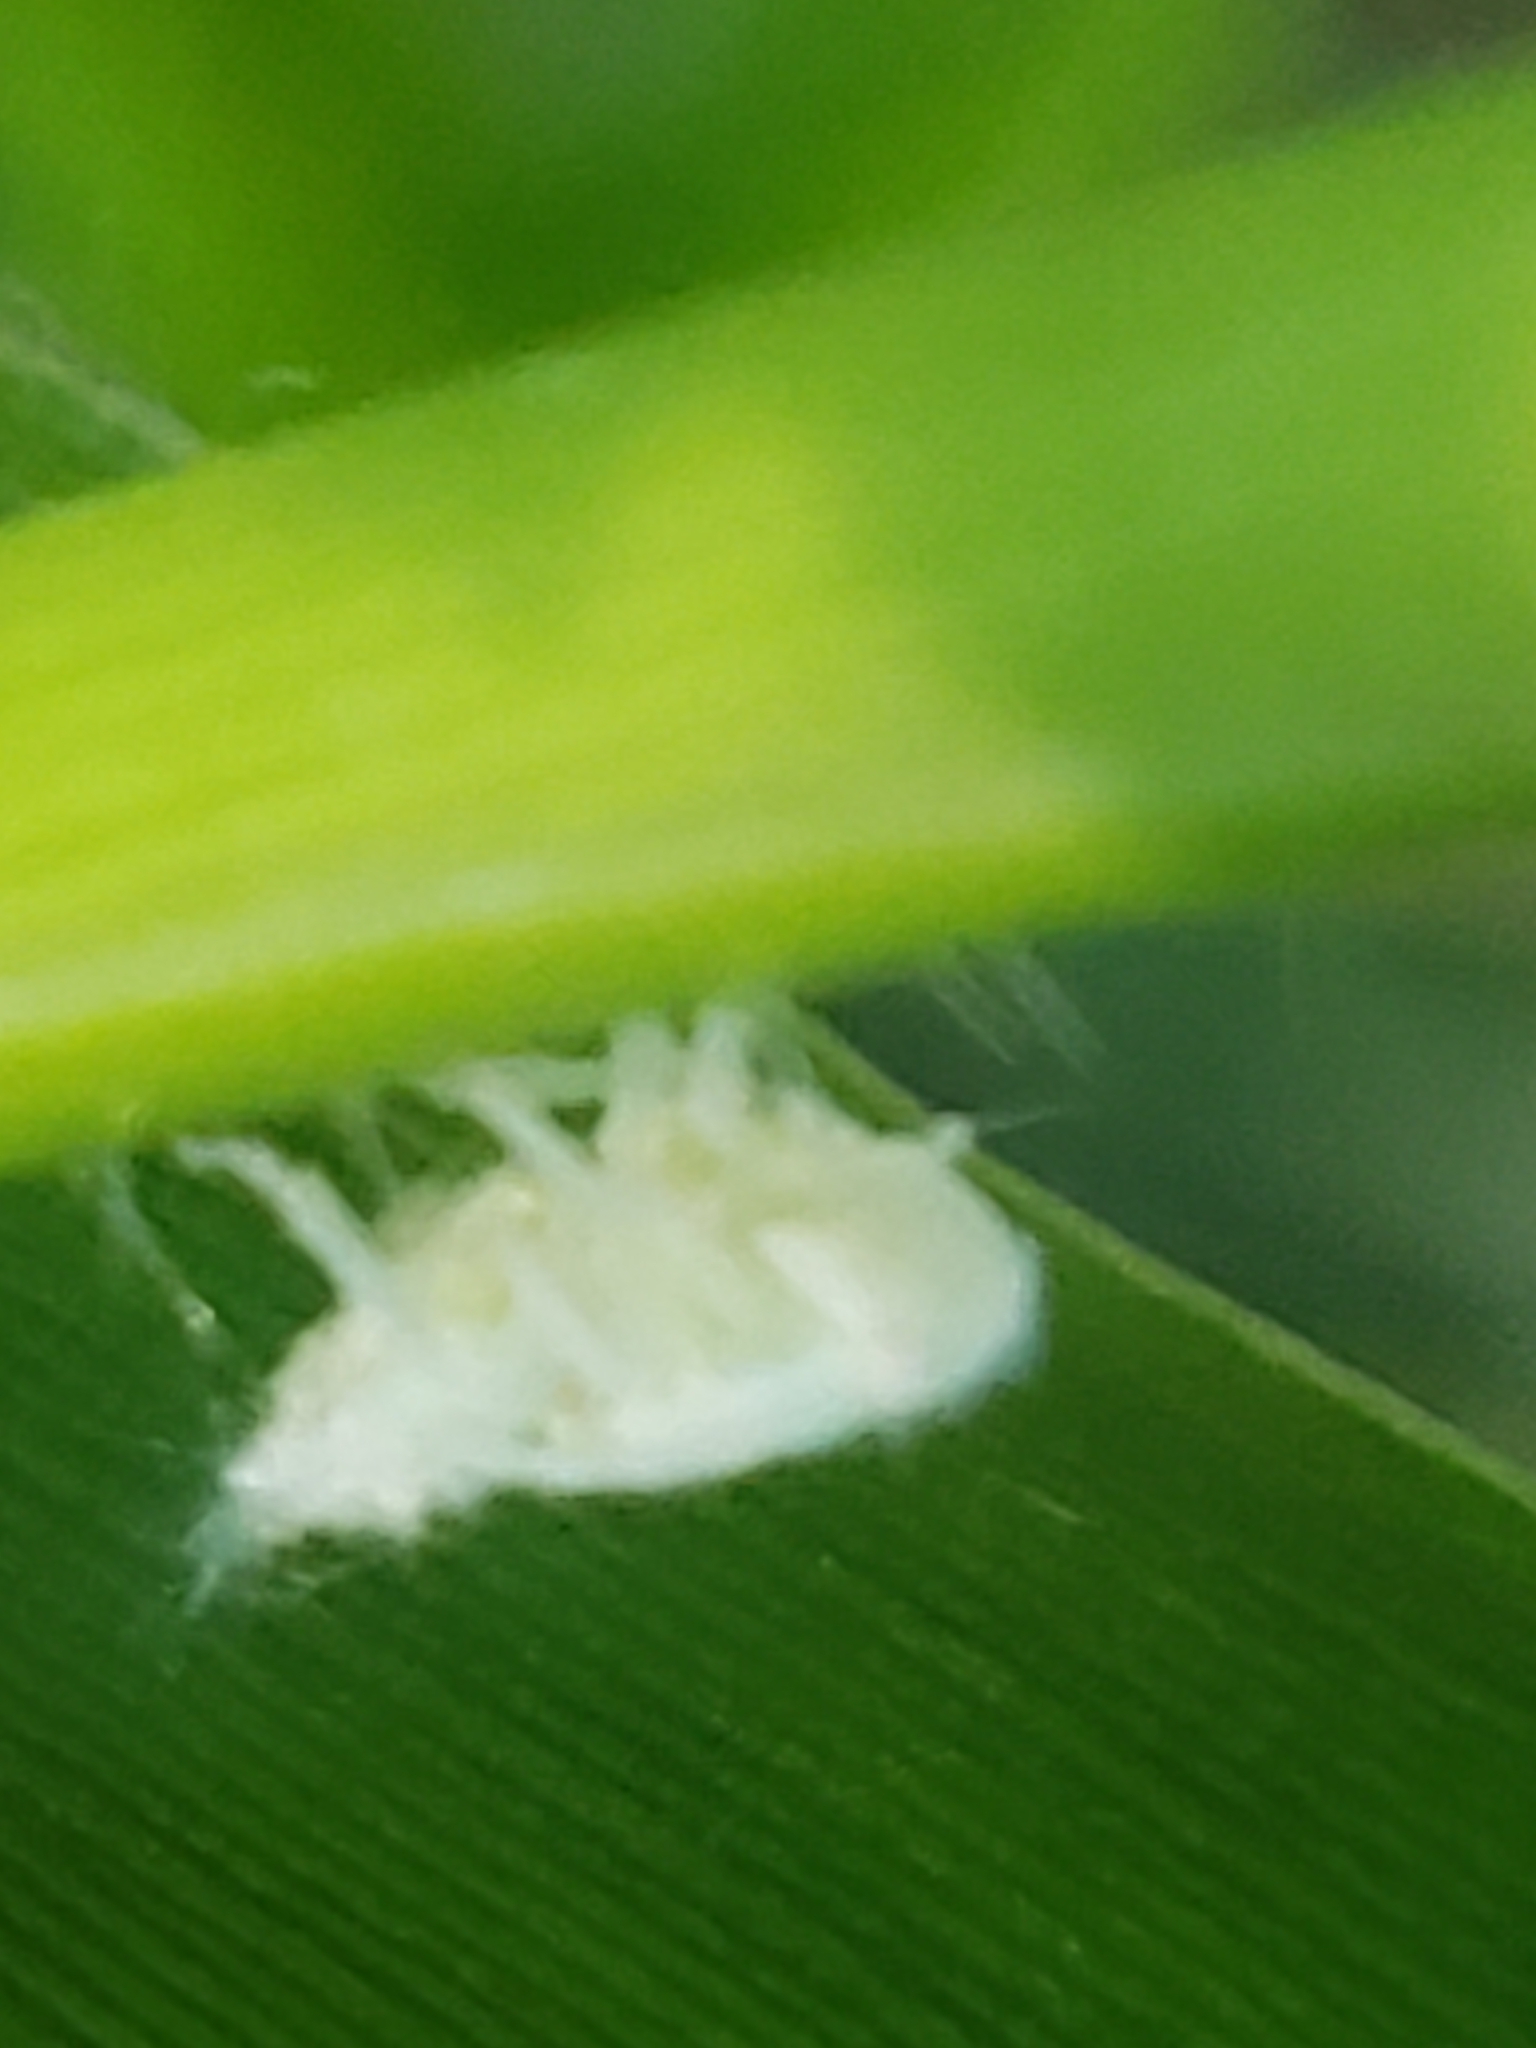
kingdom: Animalia
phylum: Arthropoda
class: Insecta
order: Hemiptera
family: Flatidae
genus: Metcalfa
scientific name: Metcalfa pruinosa
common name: Citrus flatid planthopper
